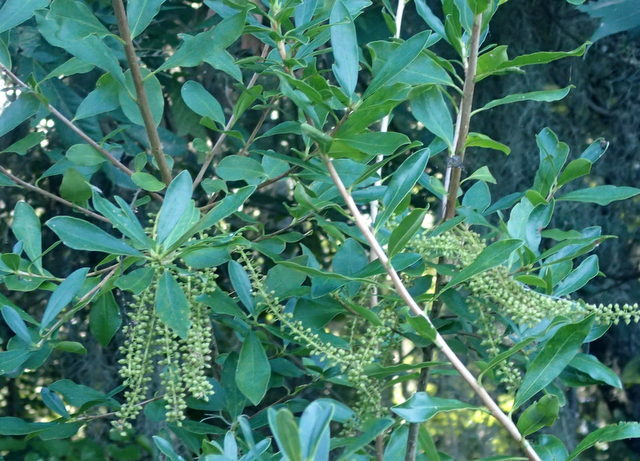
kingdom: Plantae
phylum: Tracheophyta
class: Magnoliopsida
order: Ericales
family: Cyrillaceae
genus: Cyrilla
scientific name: Cyrilla racemiflora
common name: Black titi
